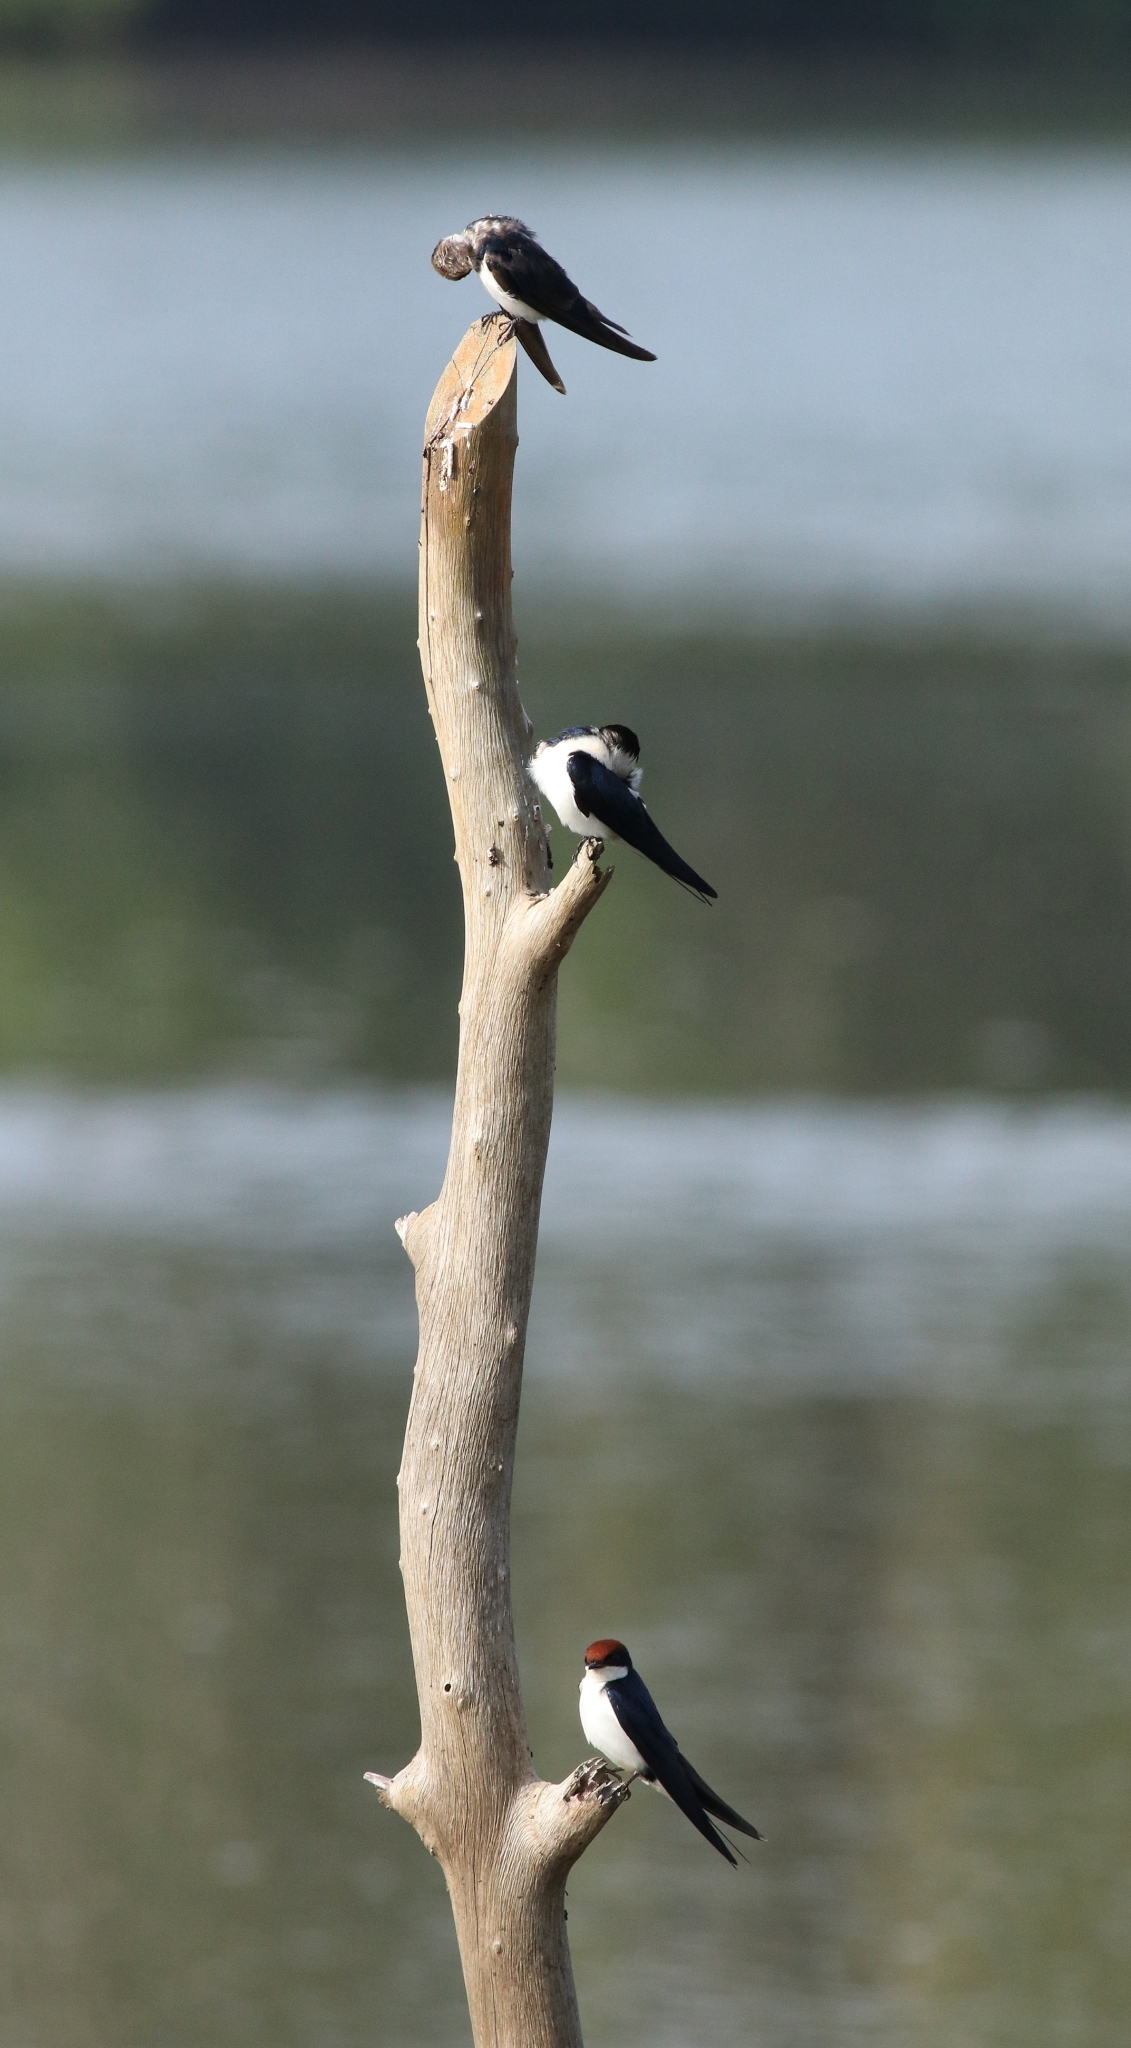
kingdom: Animalia
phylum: Chordata
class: Aves
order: Passeriformes
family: Hirundinidae
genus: Hirundo
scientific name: Hirundo smithii
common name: Wire-tailed swallow
